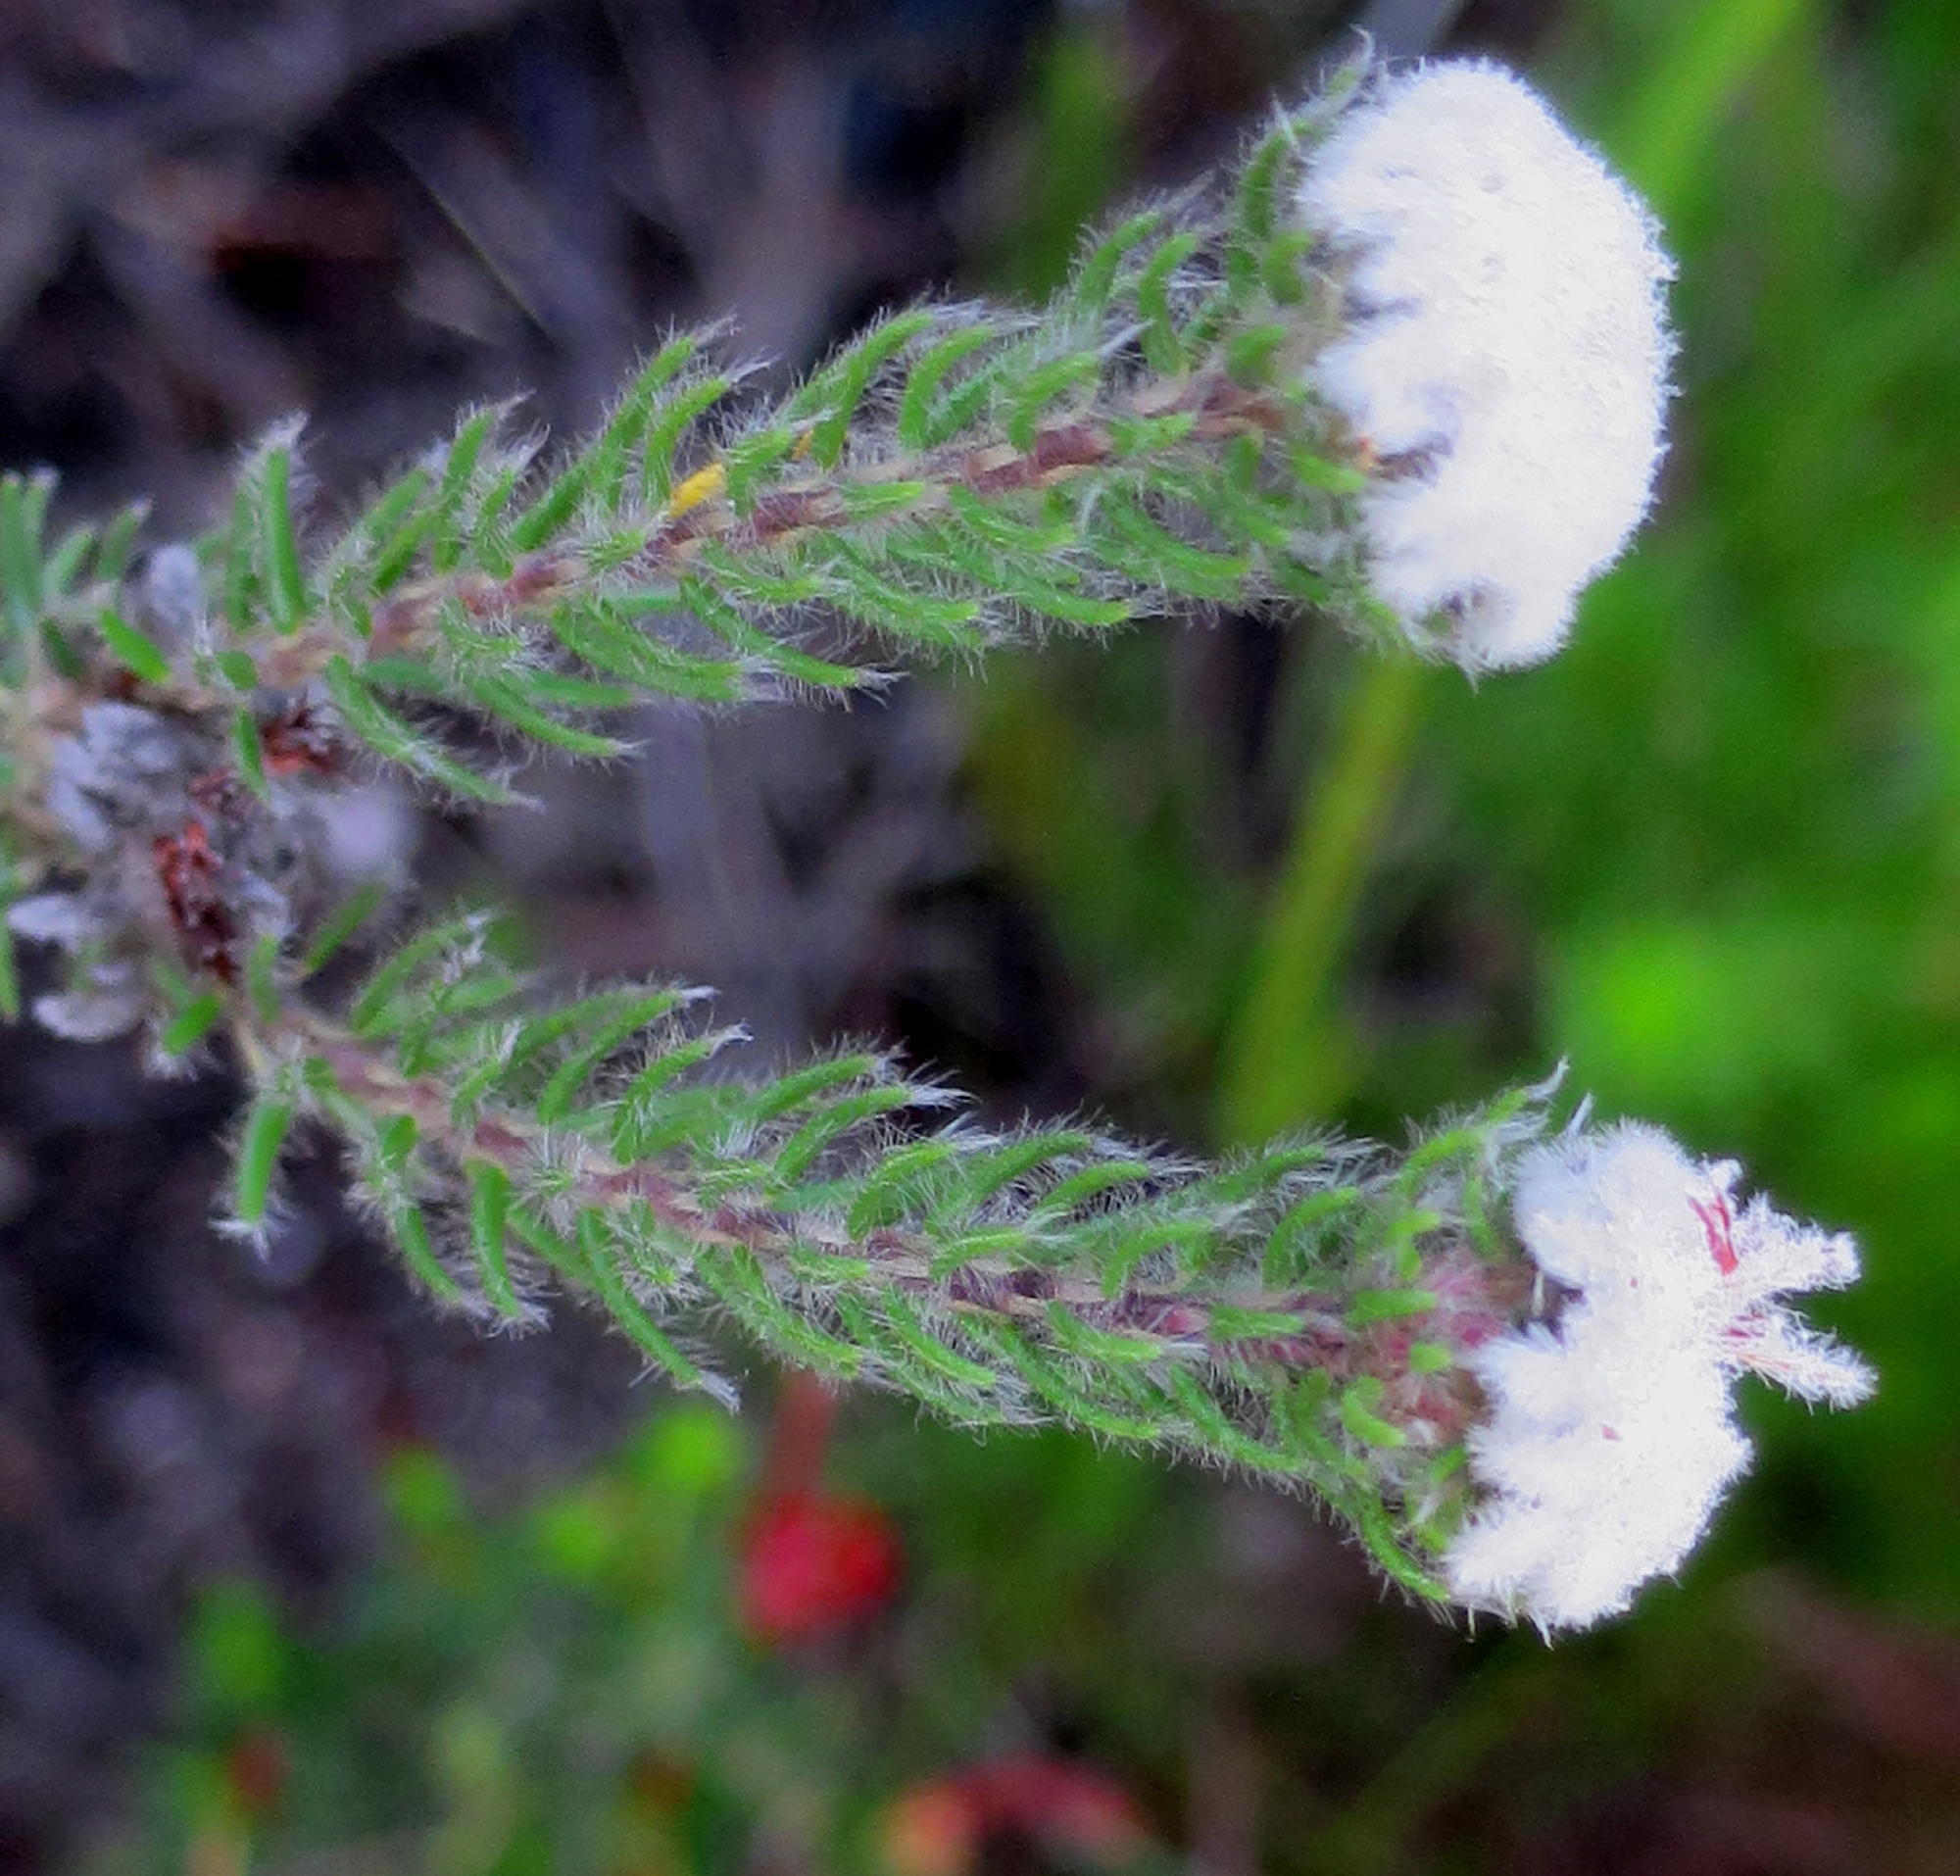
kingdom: Plantae
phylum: Tracheophyta
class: Magnoliopsida
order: Rosales
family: Rhamnaceae
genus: Phylica
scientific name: Phylica curvifolia
